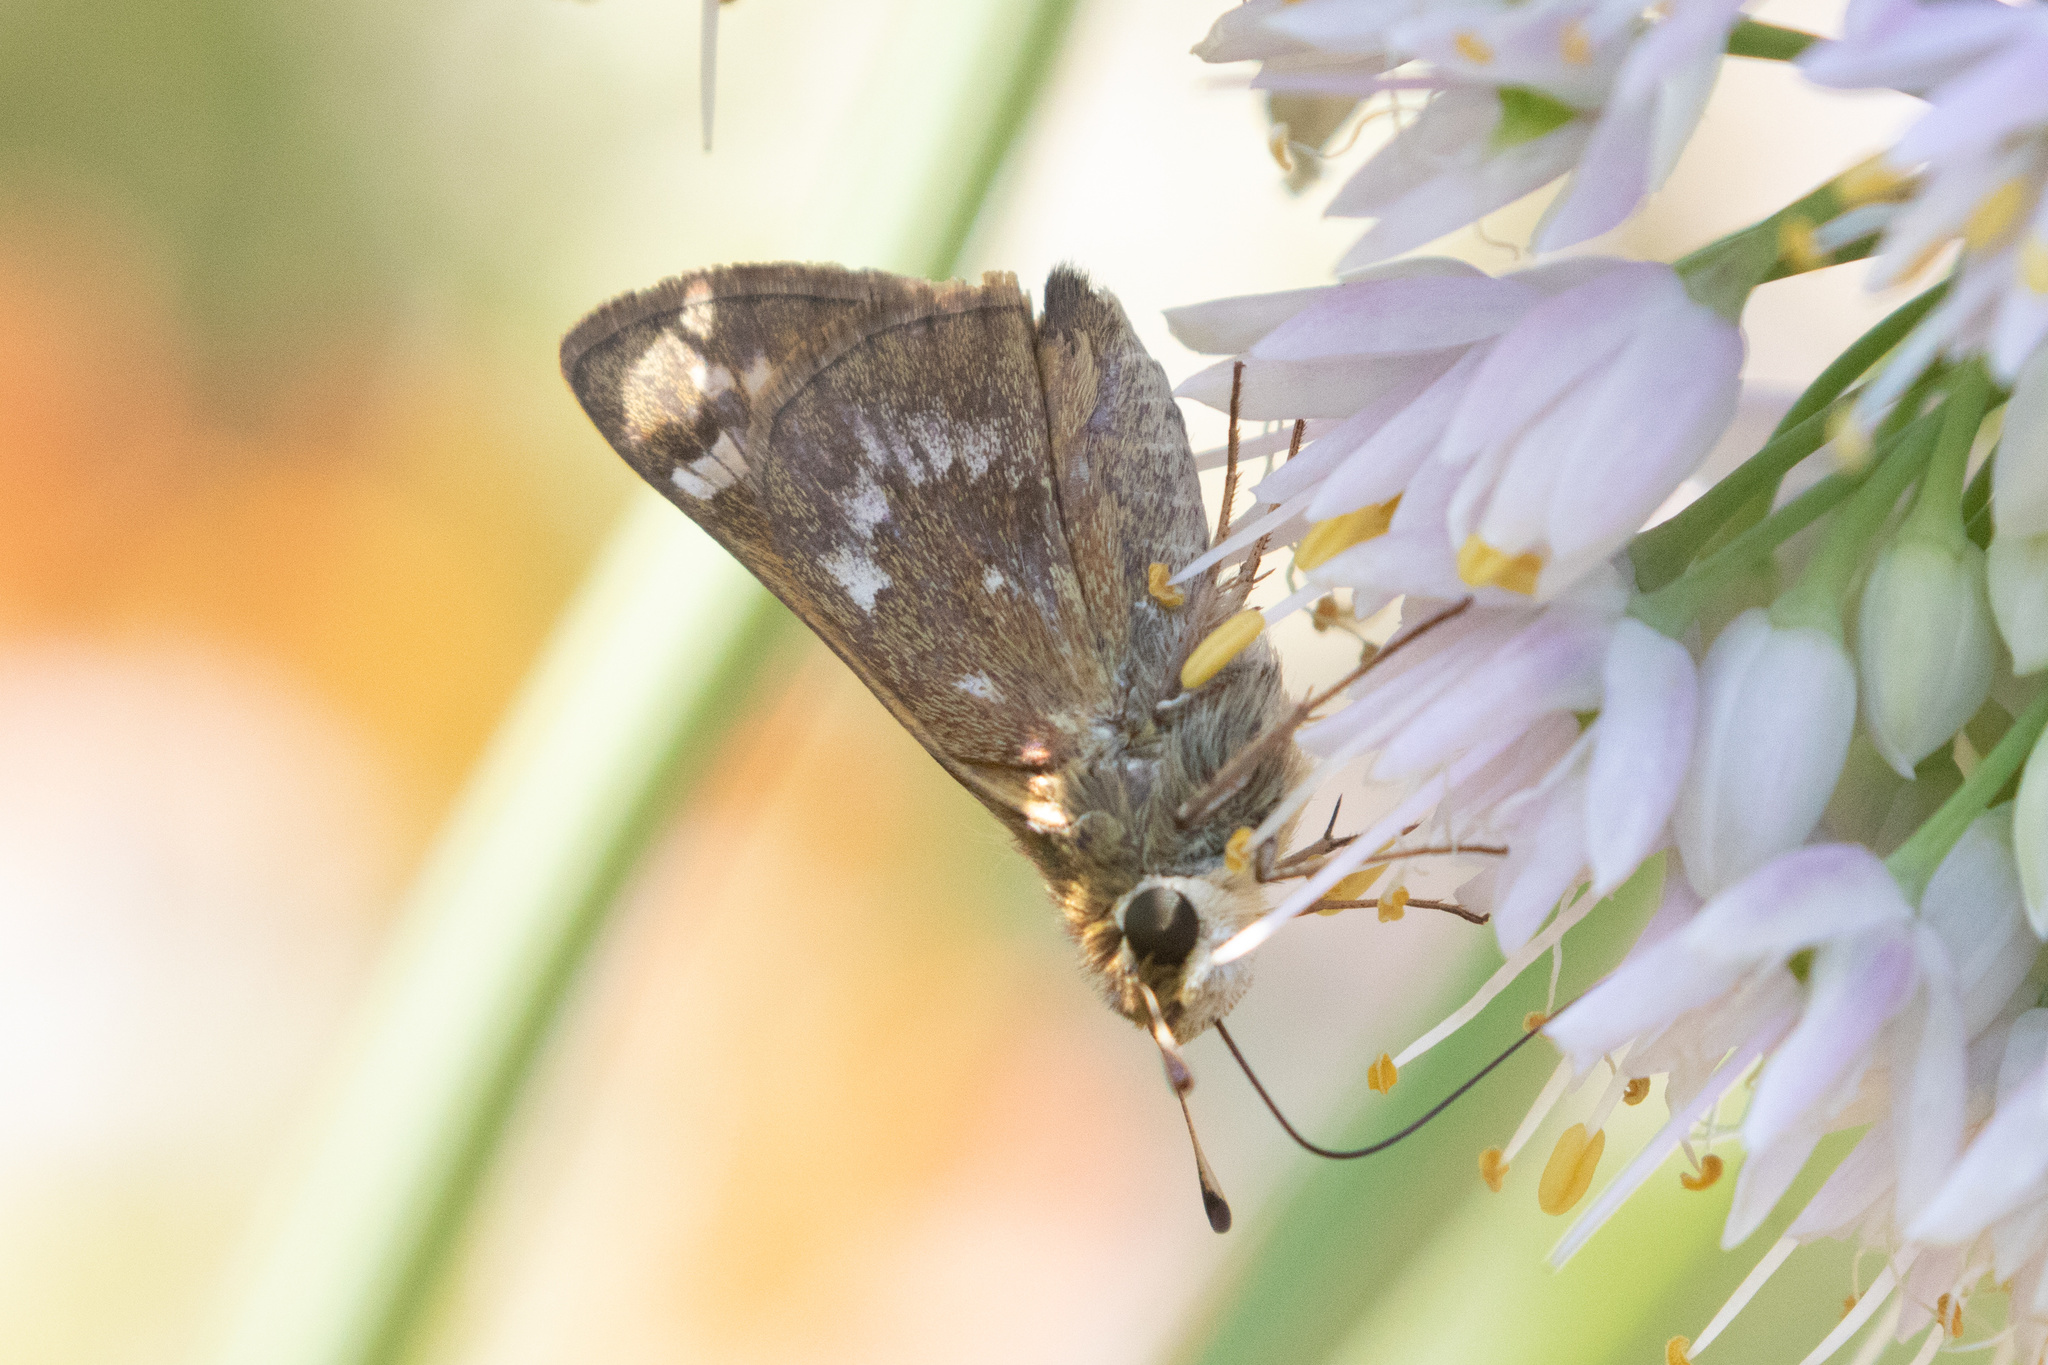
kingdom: Animalia
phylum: Arthropoda
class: Insecta
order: Lepidoptera
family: Hesperiidae
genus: Atalopedes
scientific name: Atalopedes
